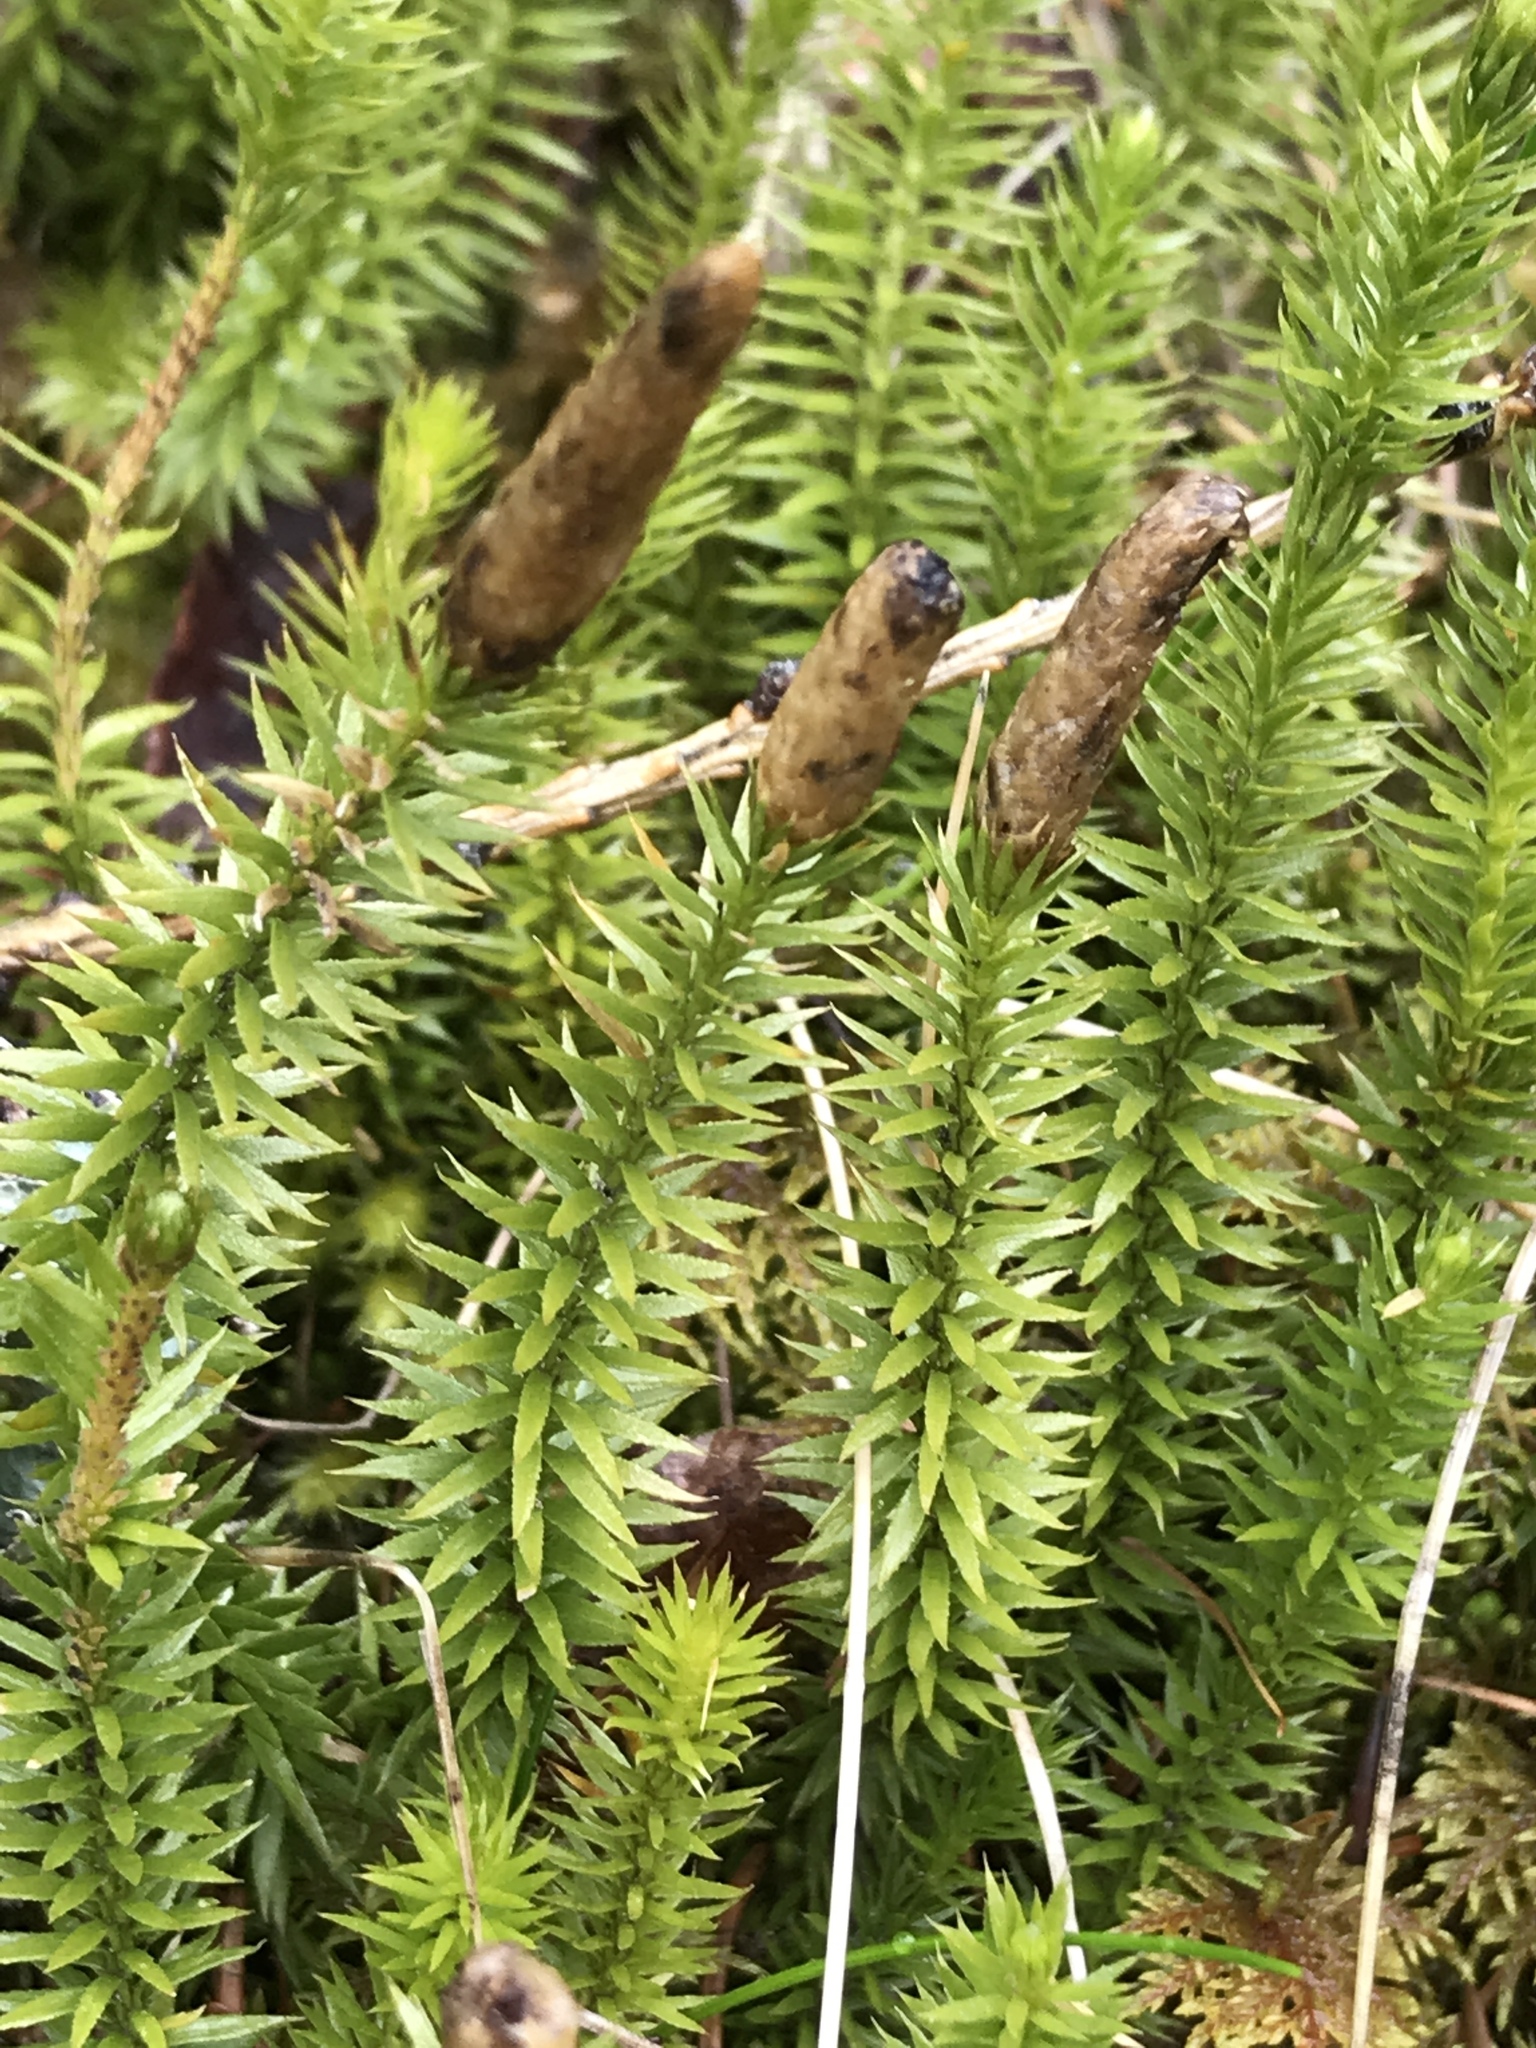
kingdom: Plantae
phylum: Tracheophyta
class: Lycopodiopsida
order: Lycopodiales
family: Lycopodiaceae
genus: Spinulum
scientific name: Spinulum annotinum
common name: Interrupted club-moss
